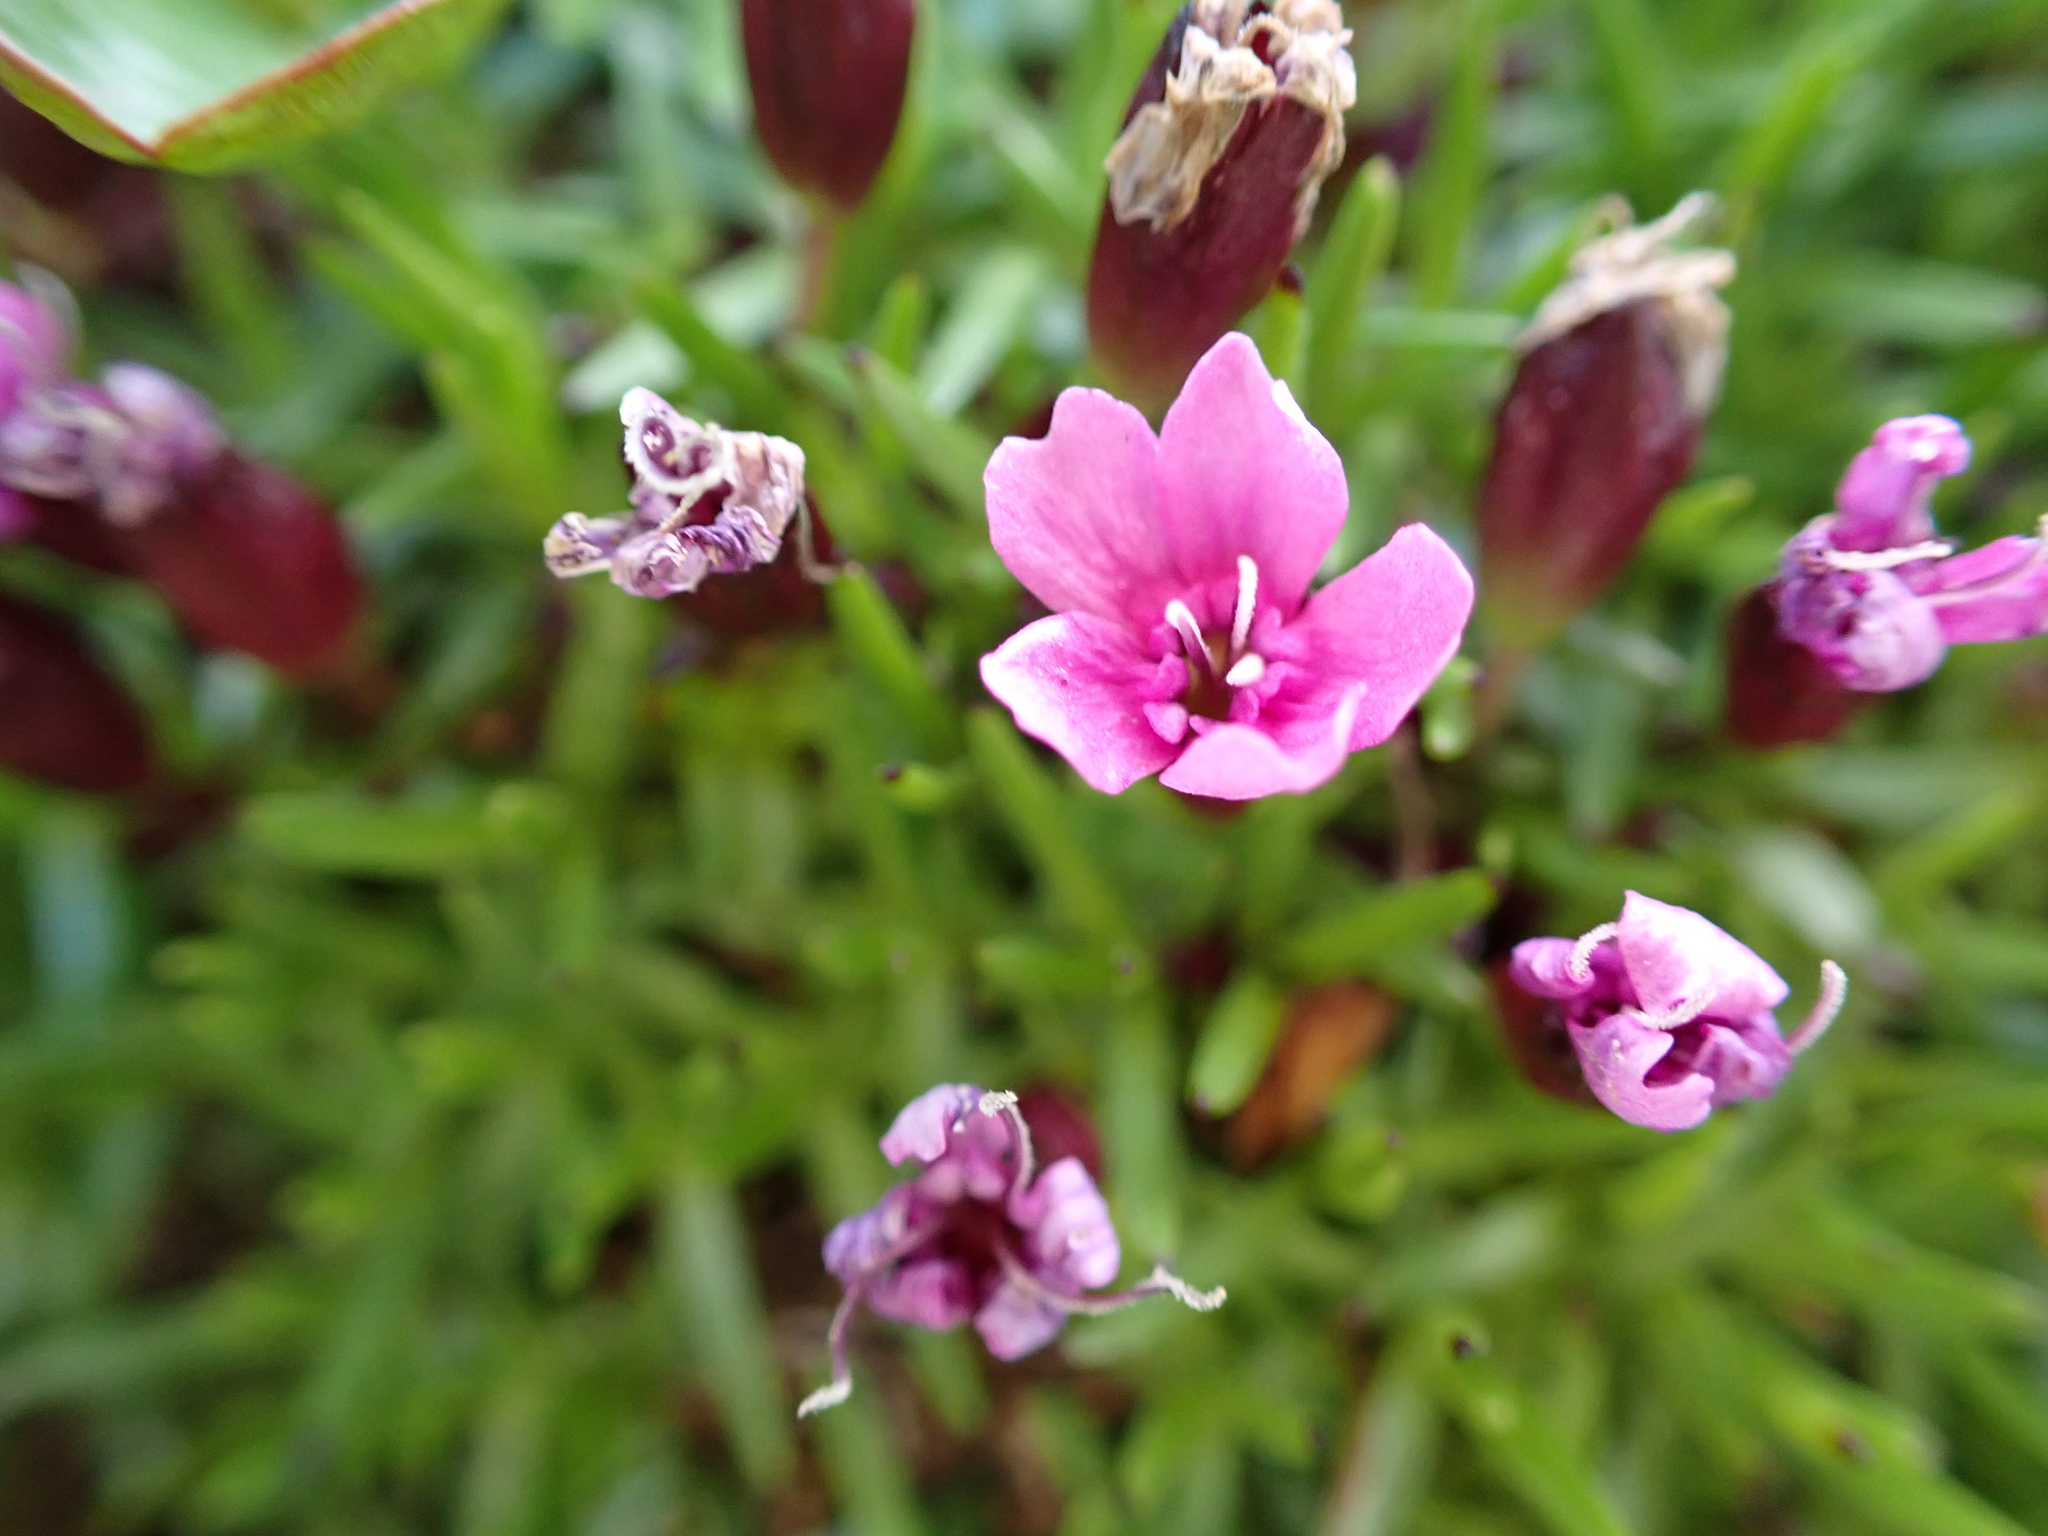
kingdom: Plantae
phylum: Tracheophyta
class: Magnoliopsida
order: Caryophyllales
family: Caryophyllaceae
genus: Silene
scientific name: Silene acaulis
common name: Moss campion
